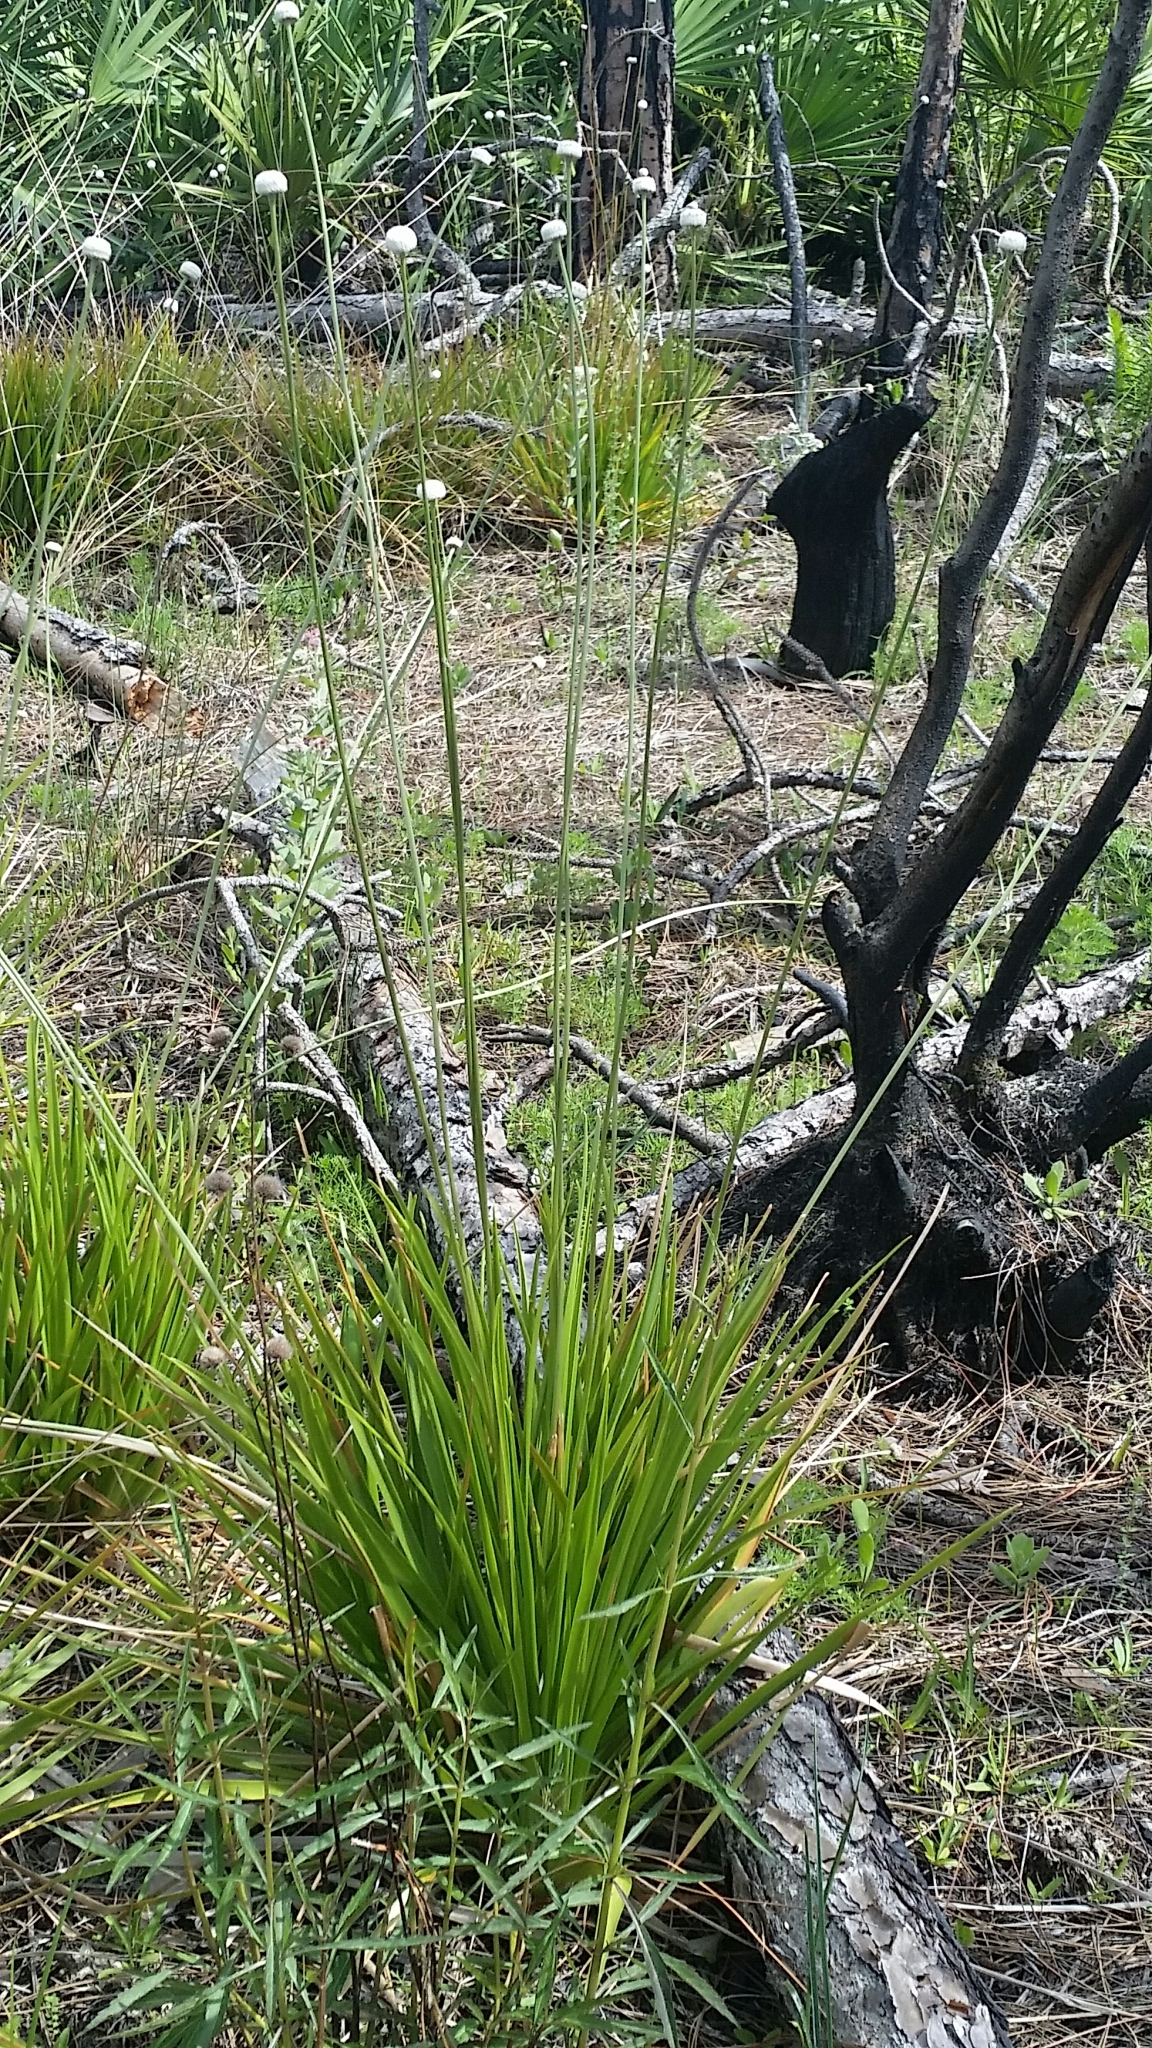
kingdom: Plantae
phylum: Tracheophyta
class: Liliopsida
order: Poales
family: Eriocaulaceae
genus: Eriocaulon
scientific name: Eriocaulon decangulare
